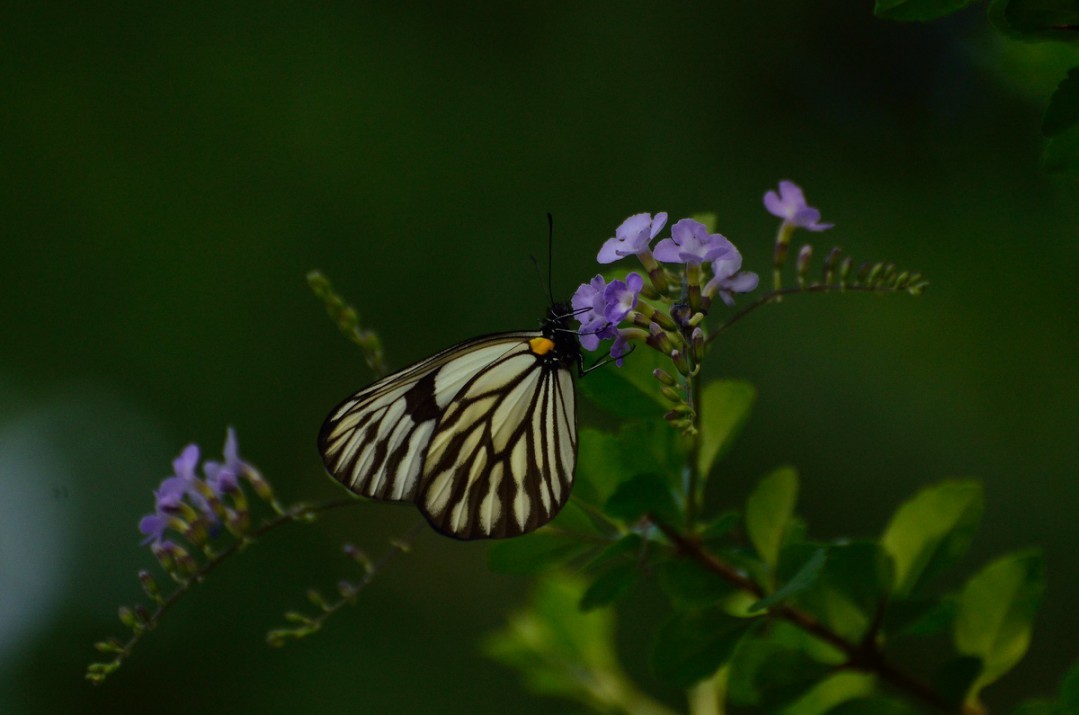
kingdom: Animalia
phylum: Arthropoda
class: Insecta
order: Lepidoptera
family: Pieridae
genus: Aporia
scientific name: Aporia agathon
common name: Great blackvein
